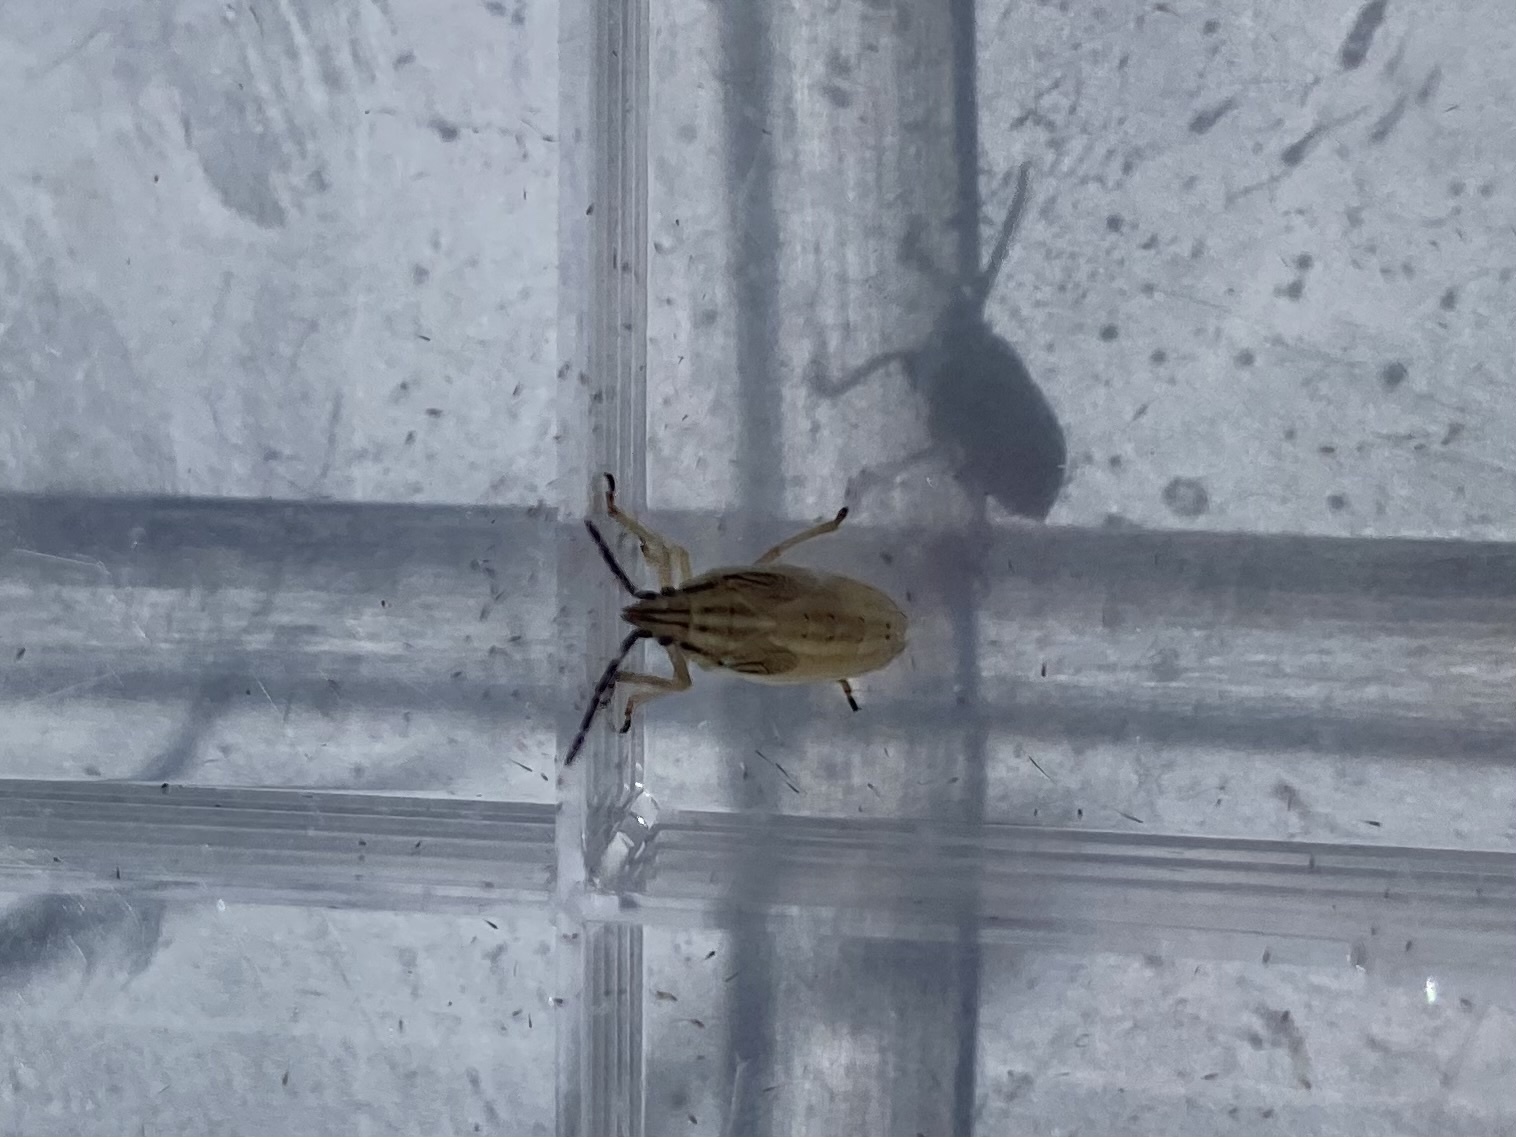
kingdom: Animalia
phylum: Arthropoda
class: Insecta
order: Hemiptera
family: Pentatomidae
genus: Mecidea
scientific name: Mecidea
